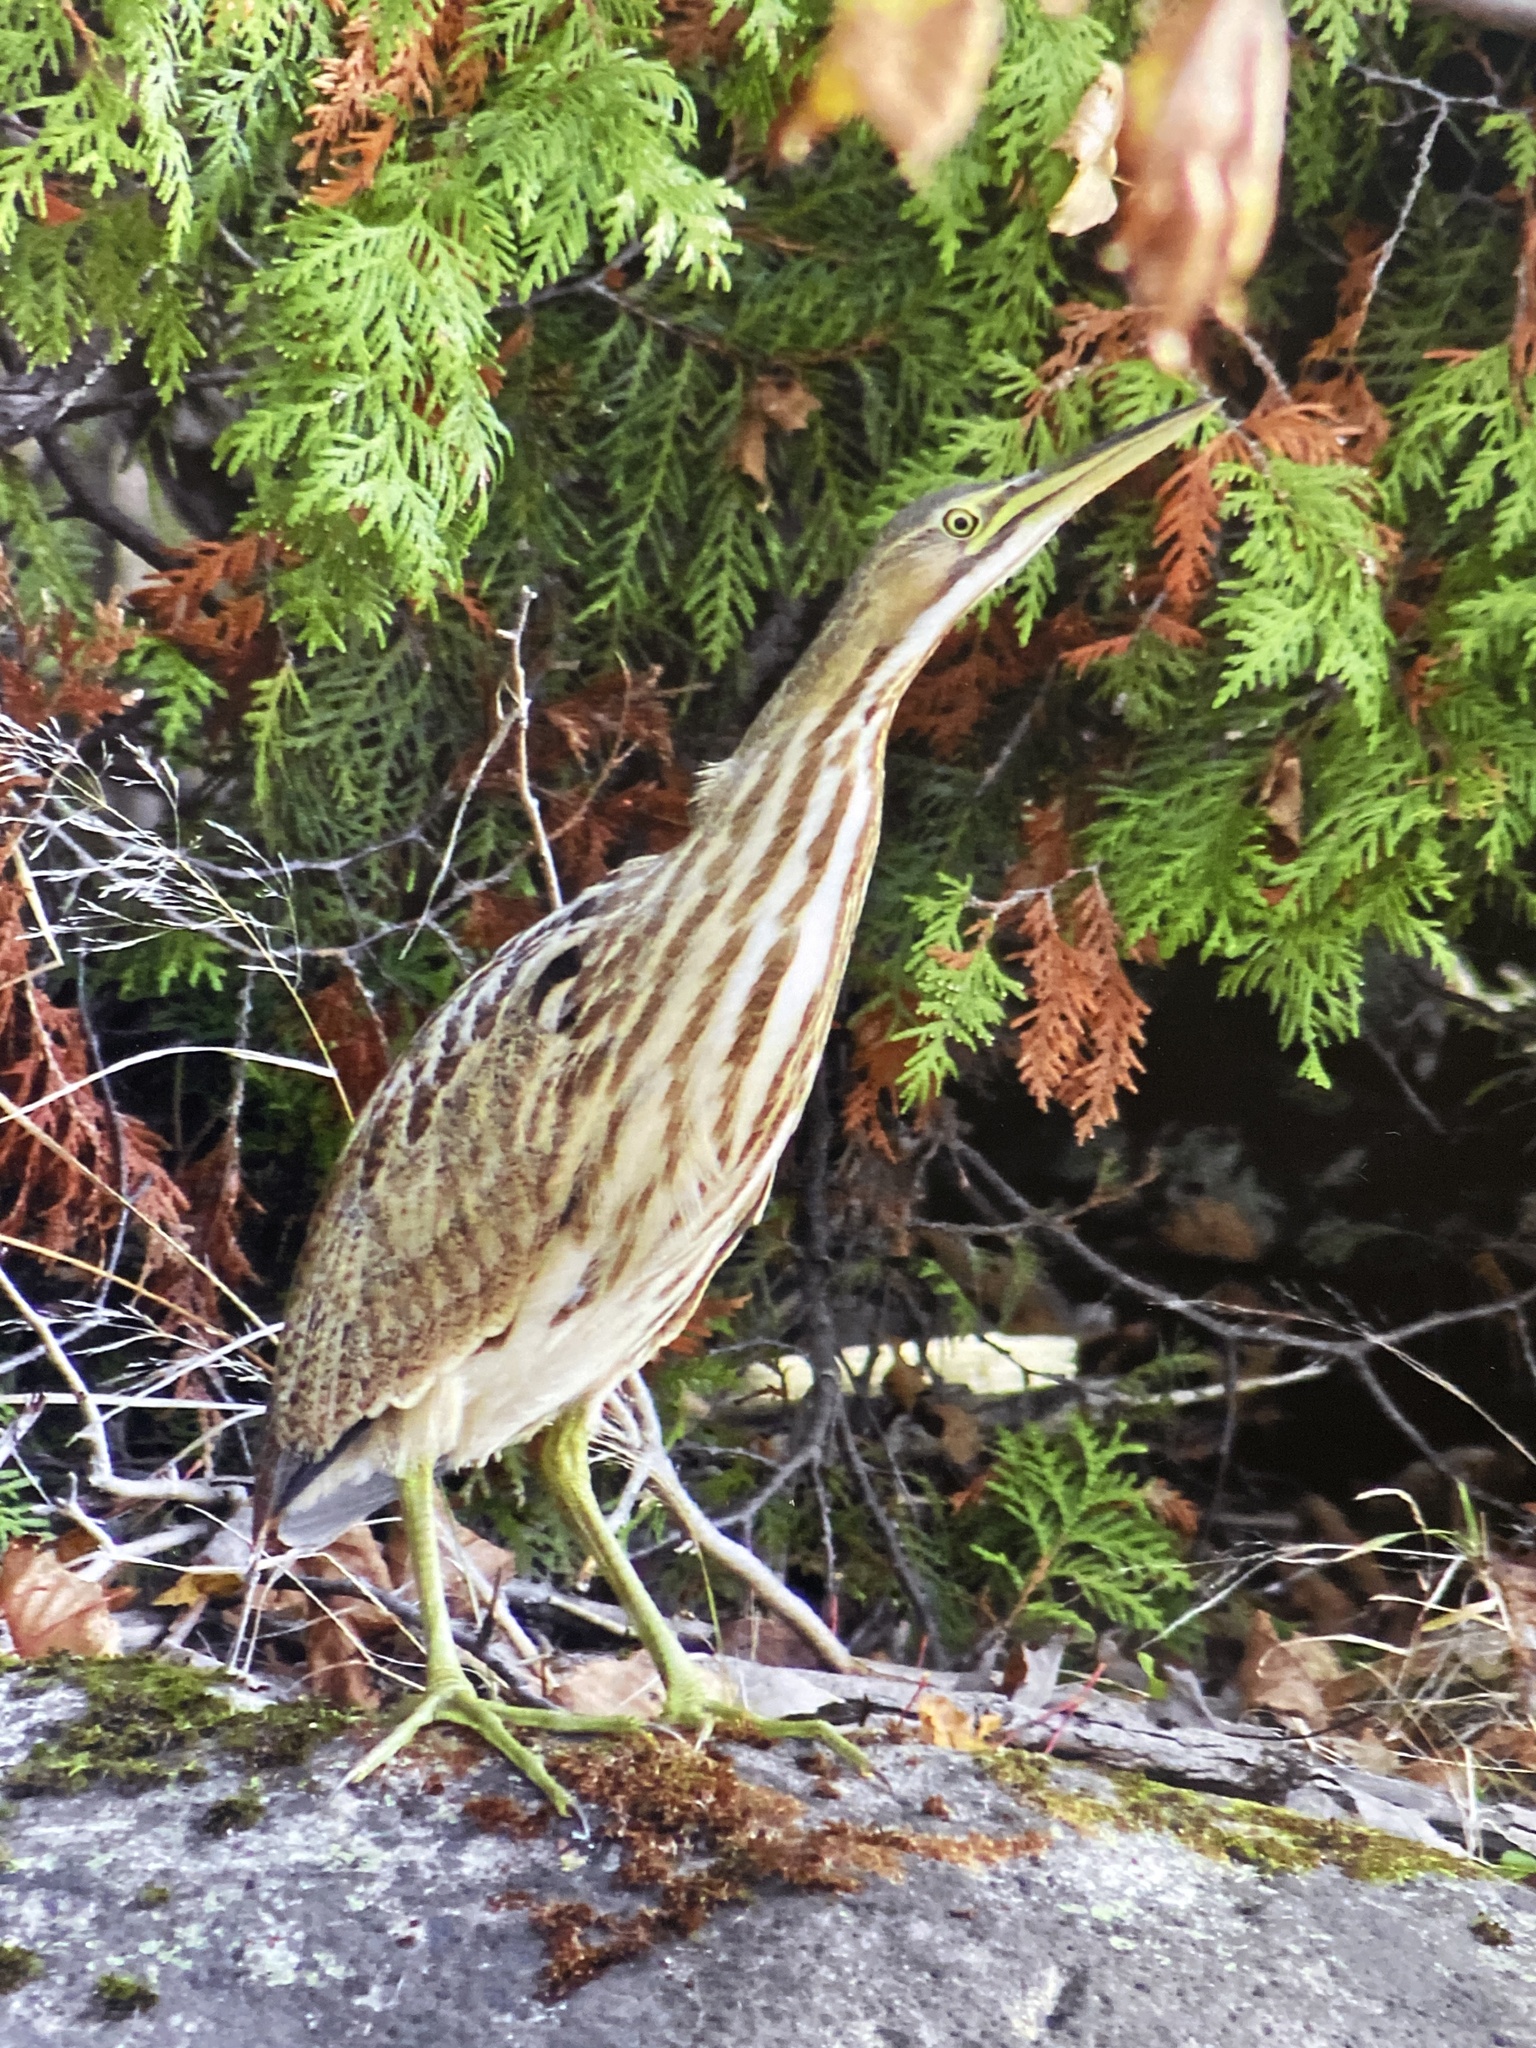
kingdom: Animalia
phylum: Chordata
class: Aves
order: Pelecaniformes
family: Ardeidae
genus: Botaurus
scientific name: Botaurus lentiginosus
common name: American bittern
